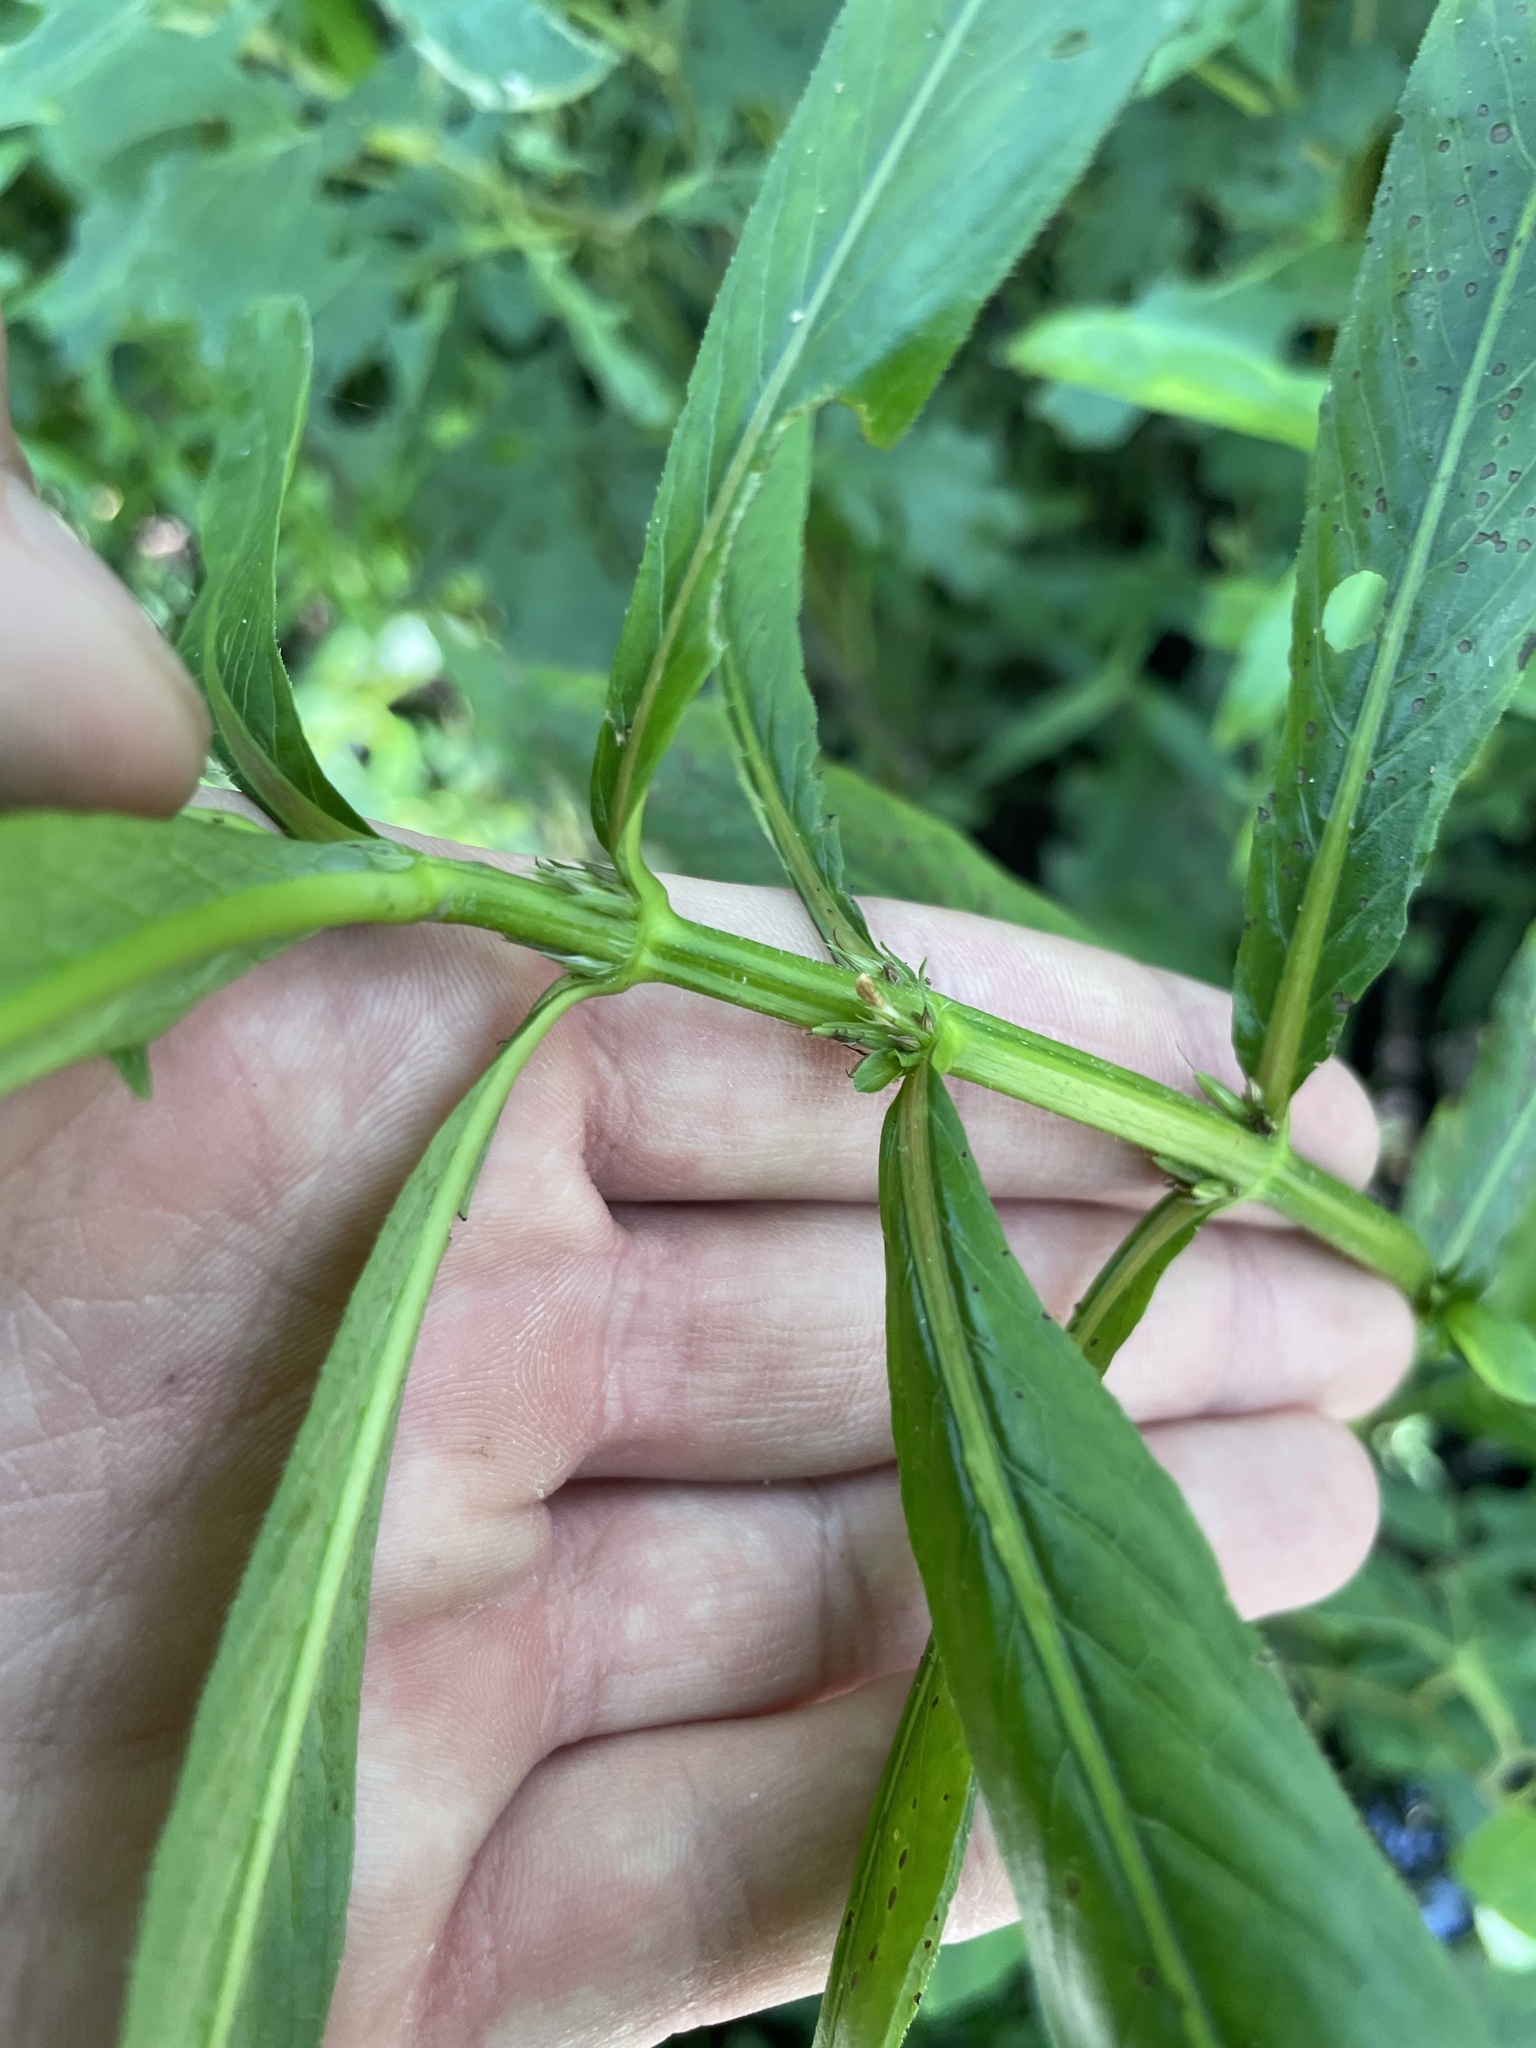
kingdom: Plantae
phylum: Tracheophyta
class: Magnoliopsida
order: Lamiales
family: Acanthaceae
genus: Hygrophila
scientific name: Hygrophila costata
